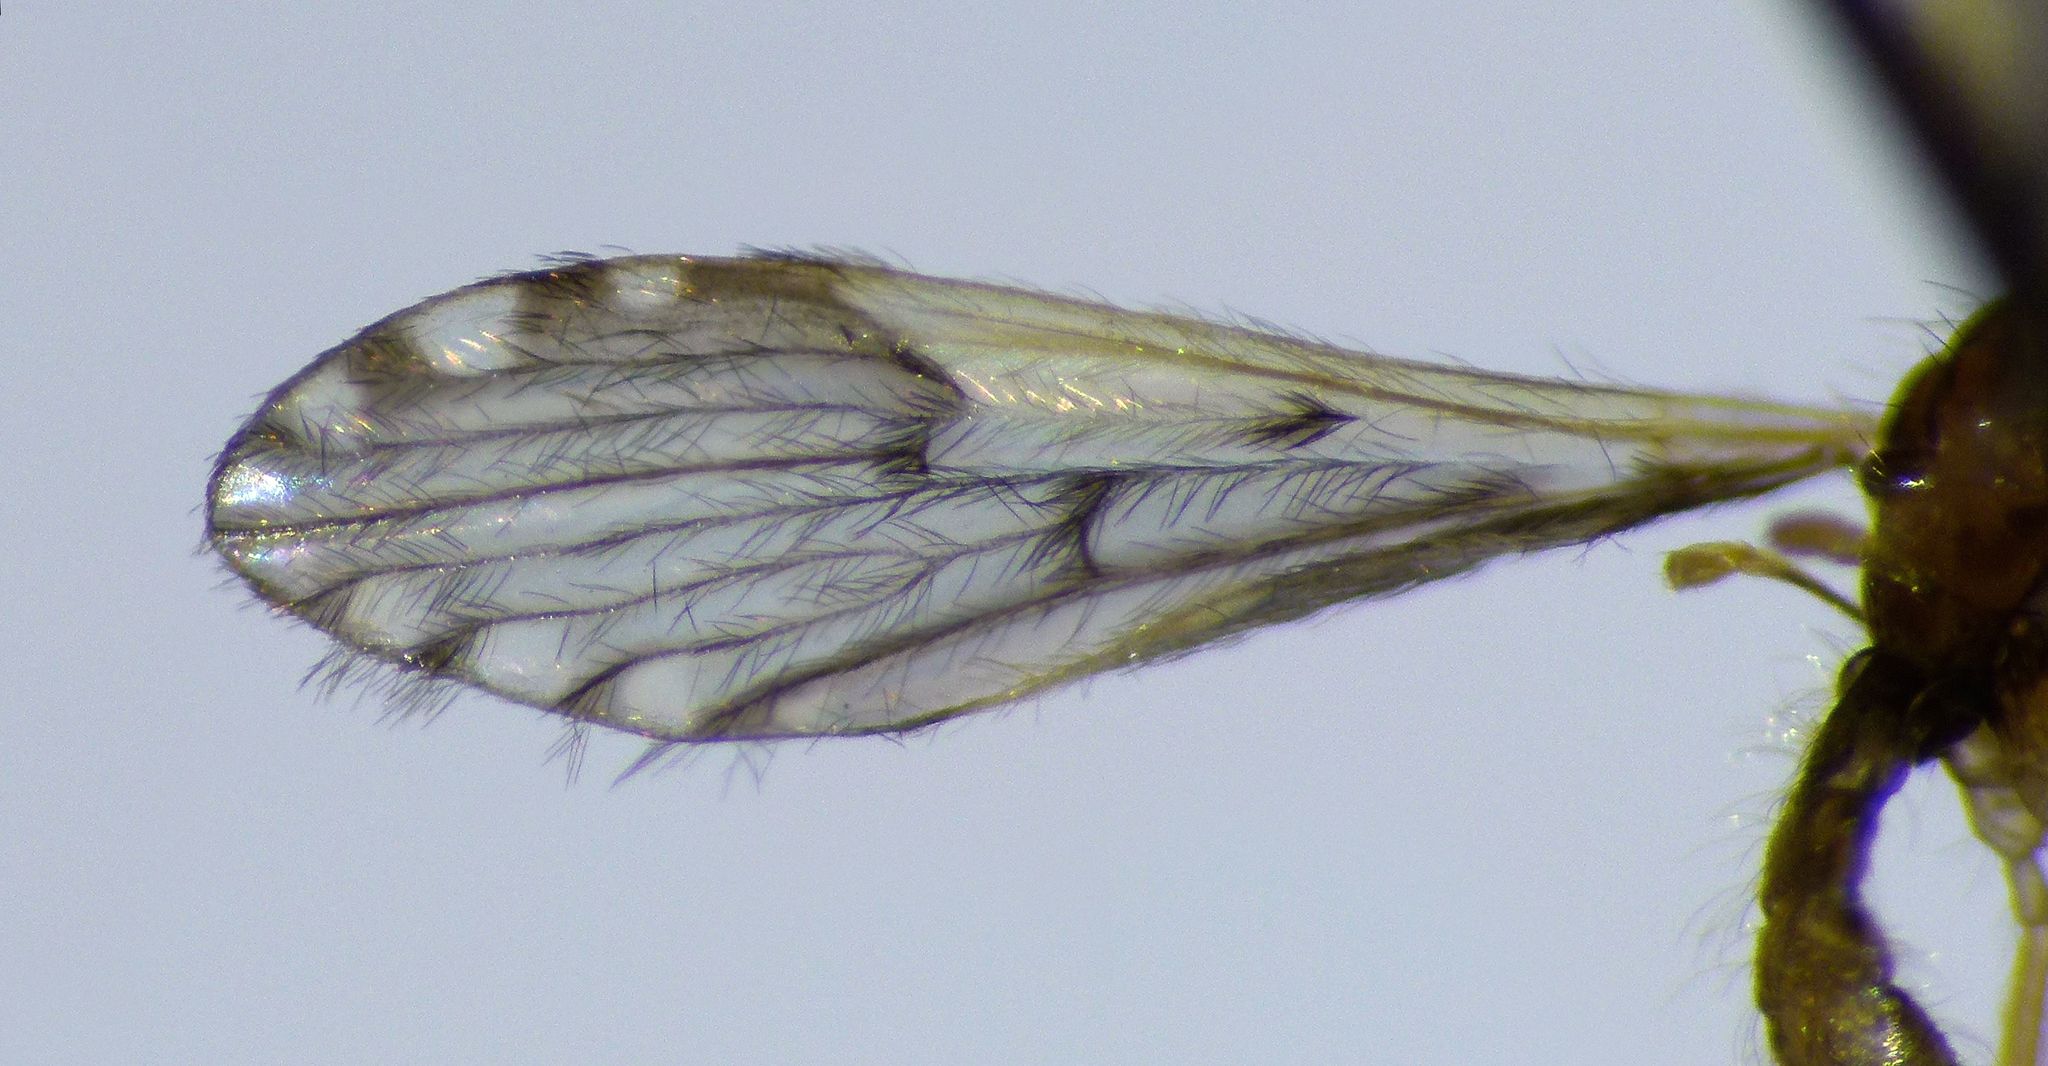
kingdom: Animalia
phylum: Arthropoda
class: Insecta
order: Diptera
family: Limoniidae
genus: Molophilus
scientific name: Molophilus pulcherrimus
